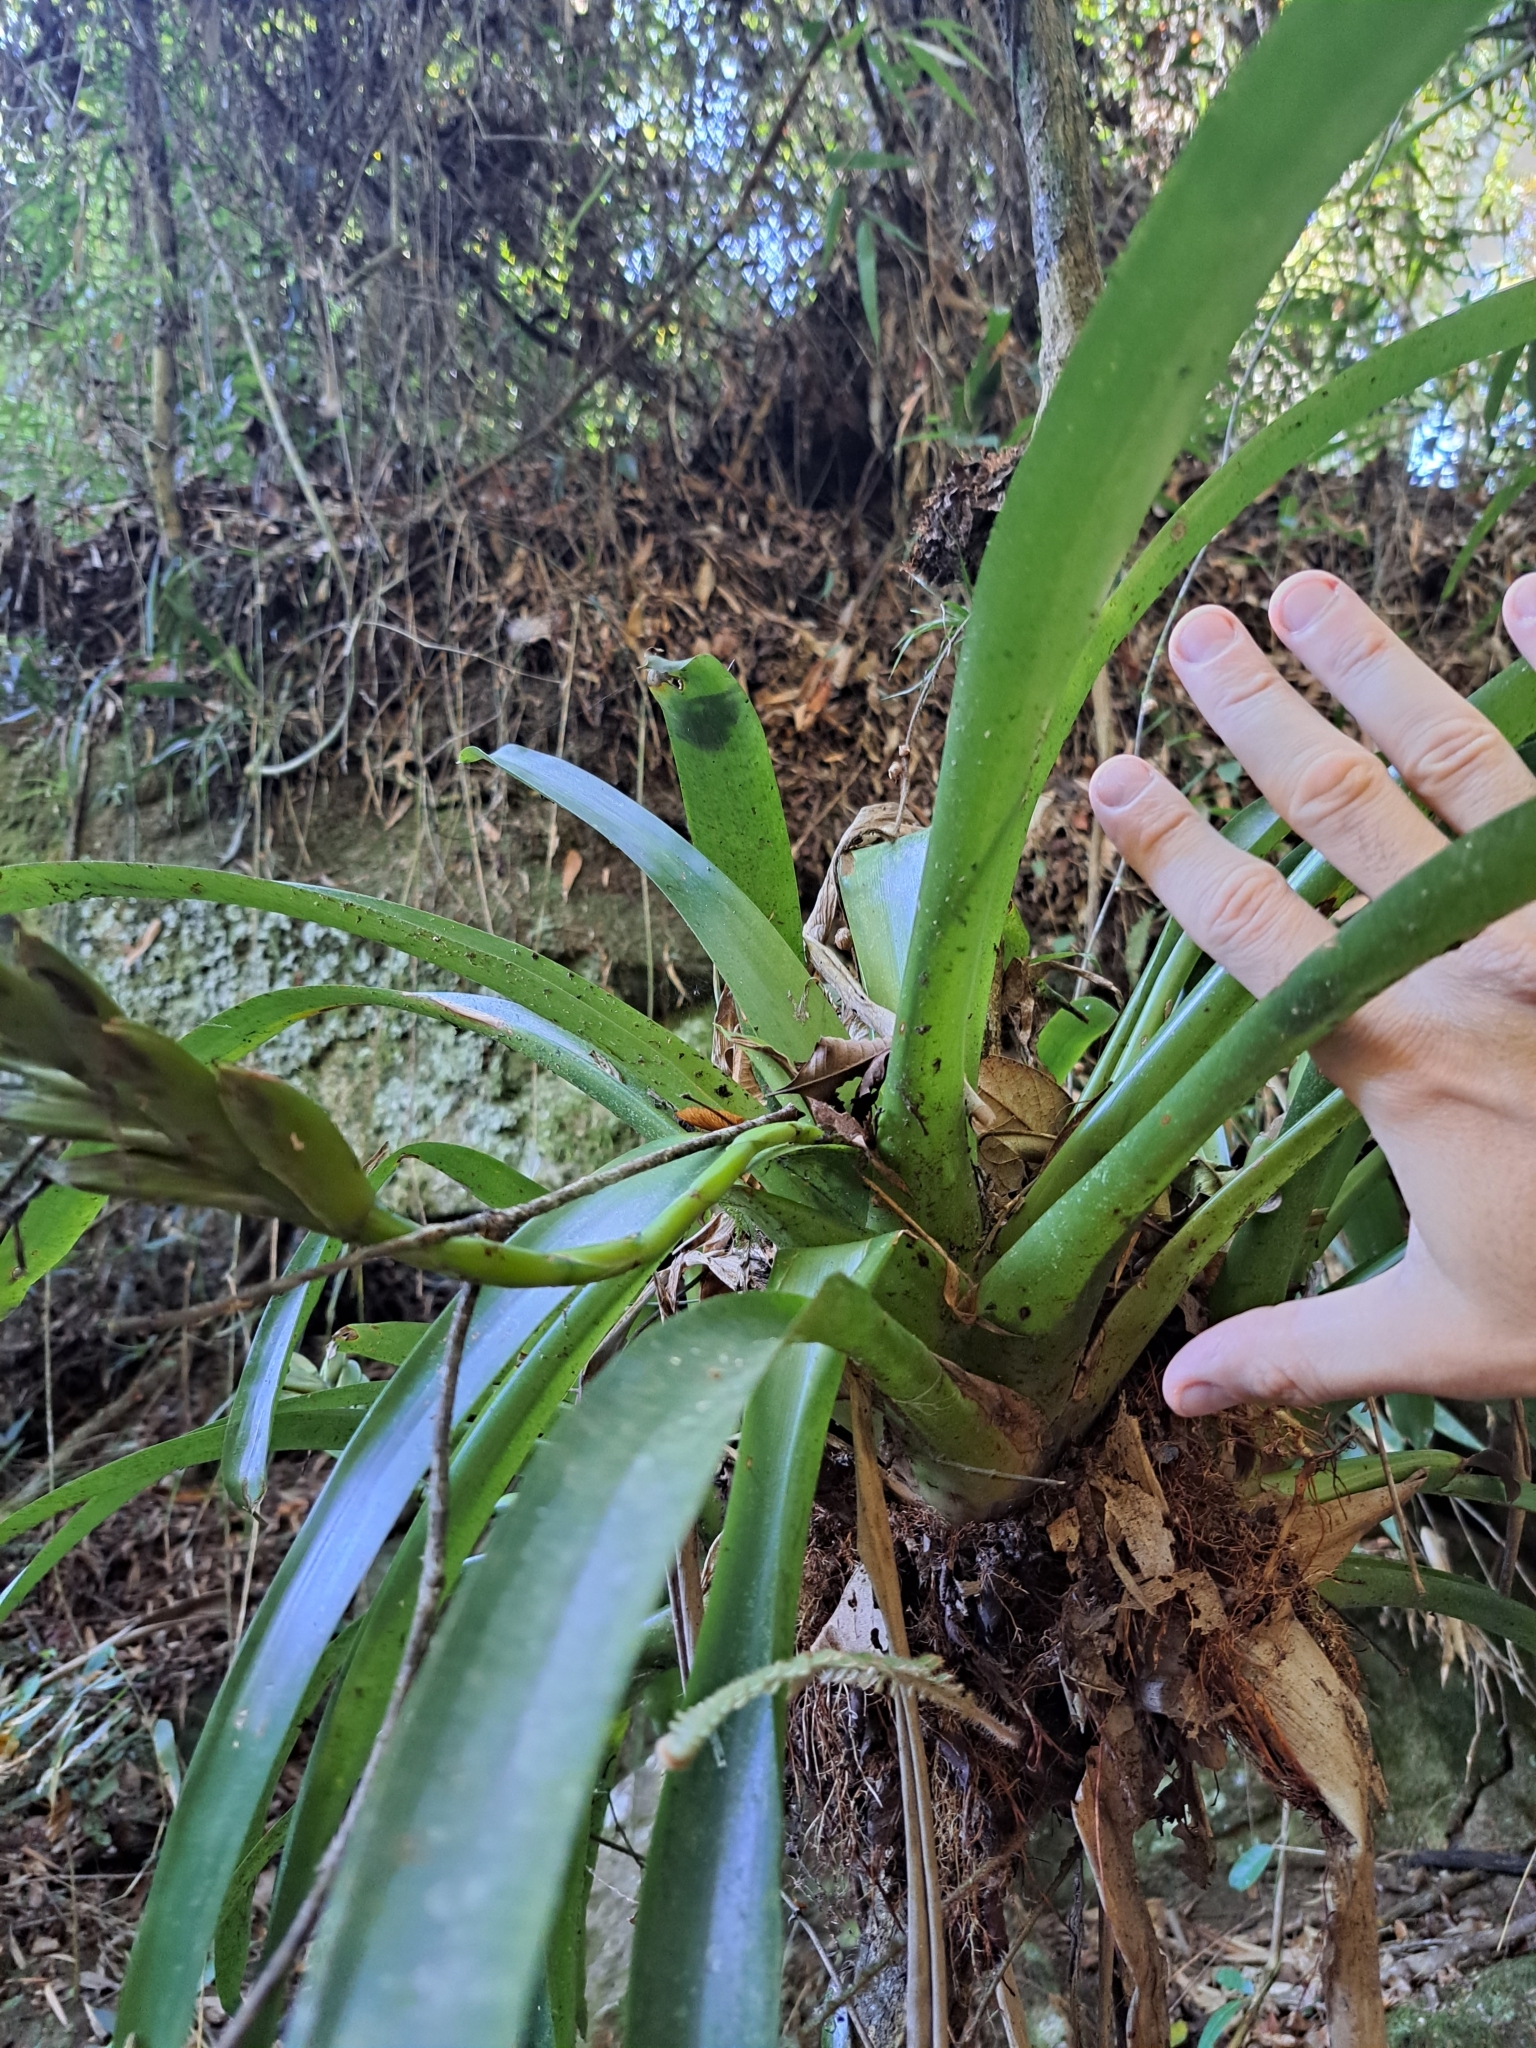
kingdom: Plantae
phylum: Tracheophyta
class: Liliopsida
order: Poales
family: Bromeliaceae
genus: Vriesea
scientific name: Vriesea paraibica
